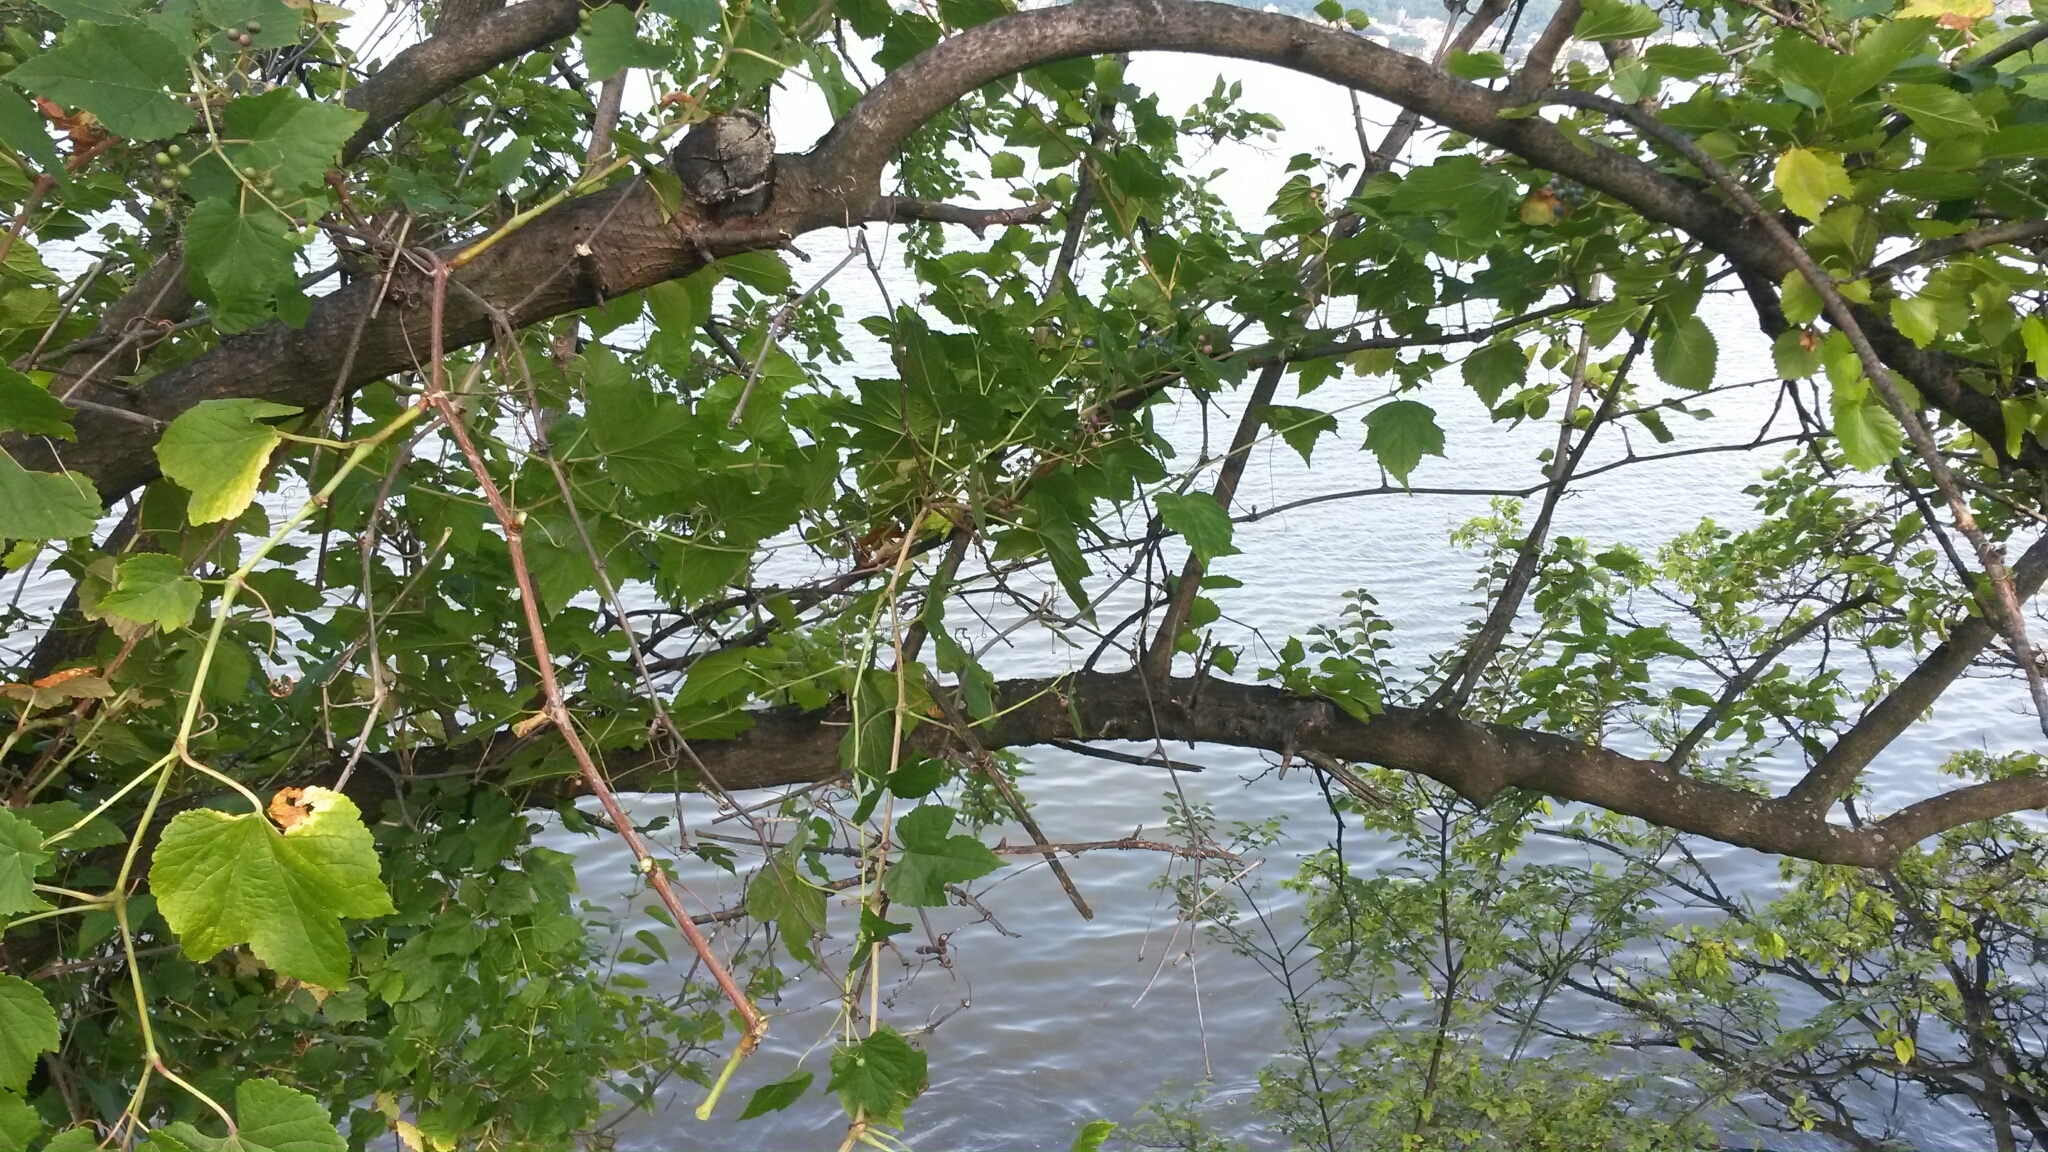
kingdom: Plantae
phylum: Tracheophyta
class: Magnoliopsida
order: Vitales
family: Vitaceae
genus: Ampelopsis
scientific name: Ampelopsis glandulosa
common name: Amur peppervine
